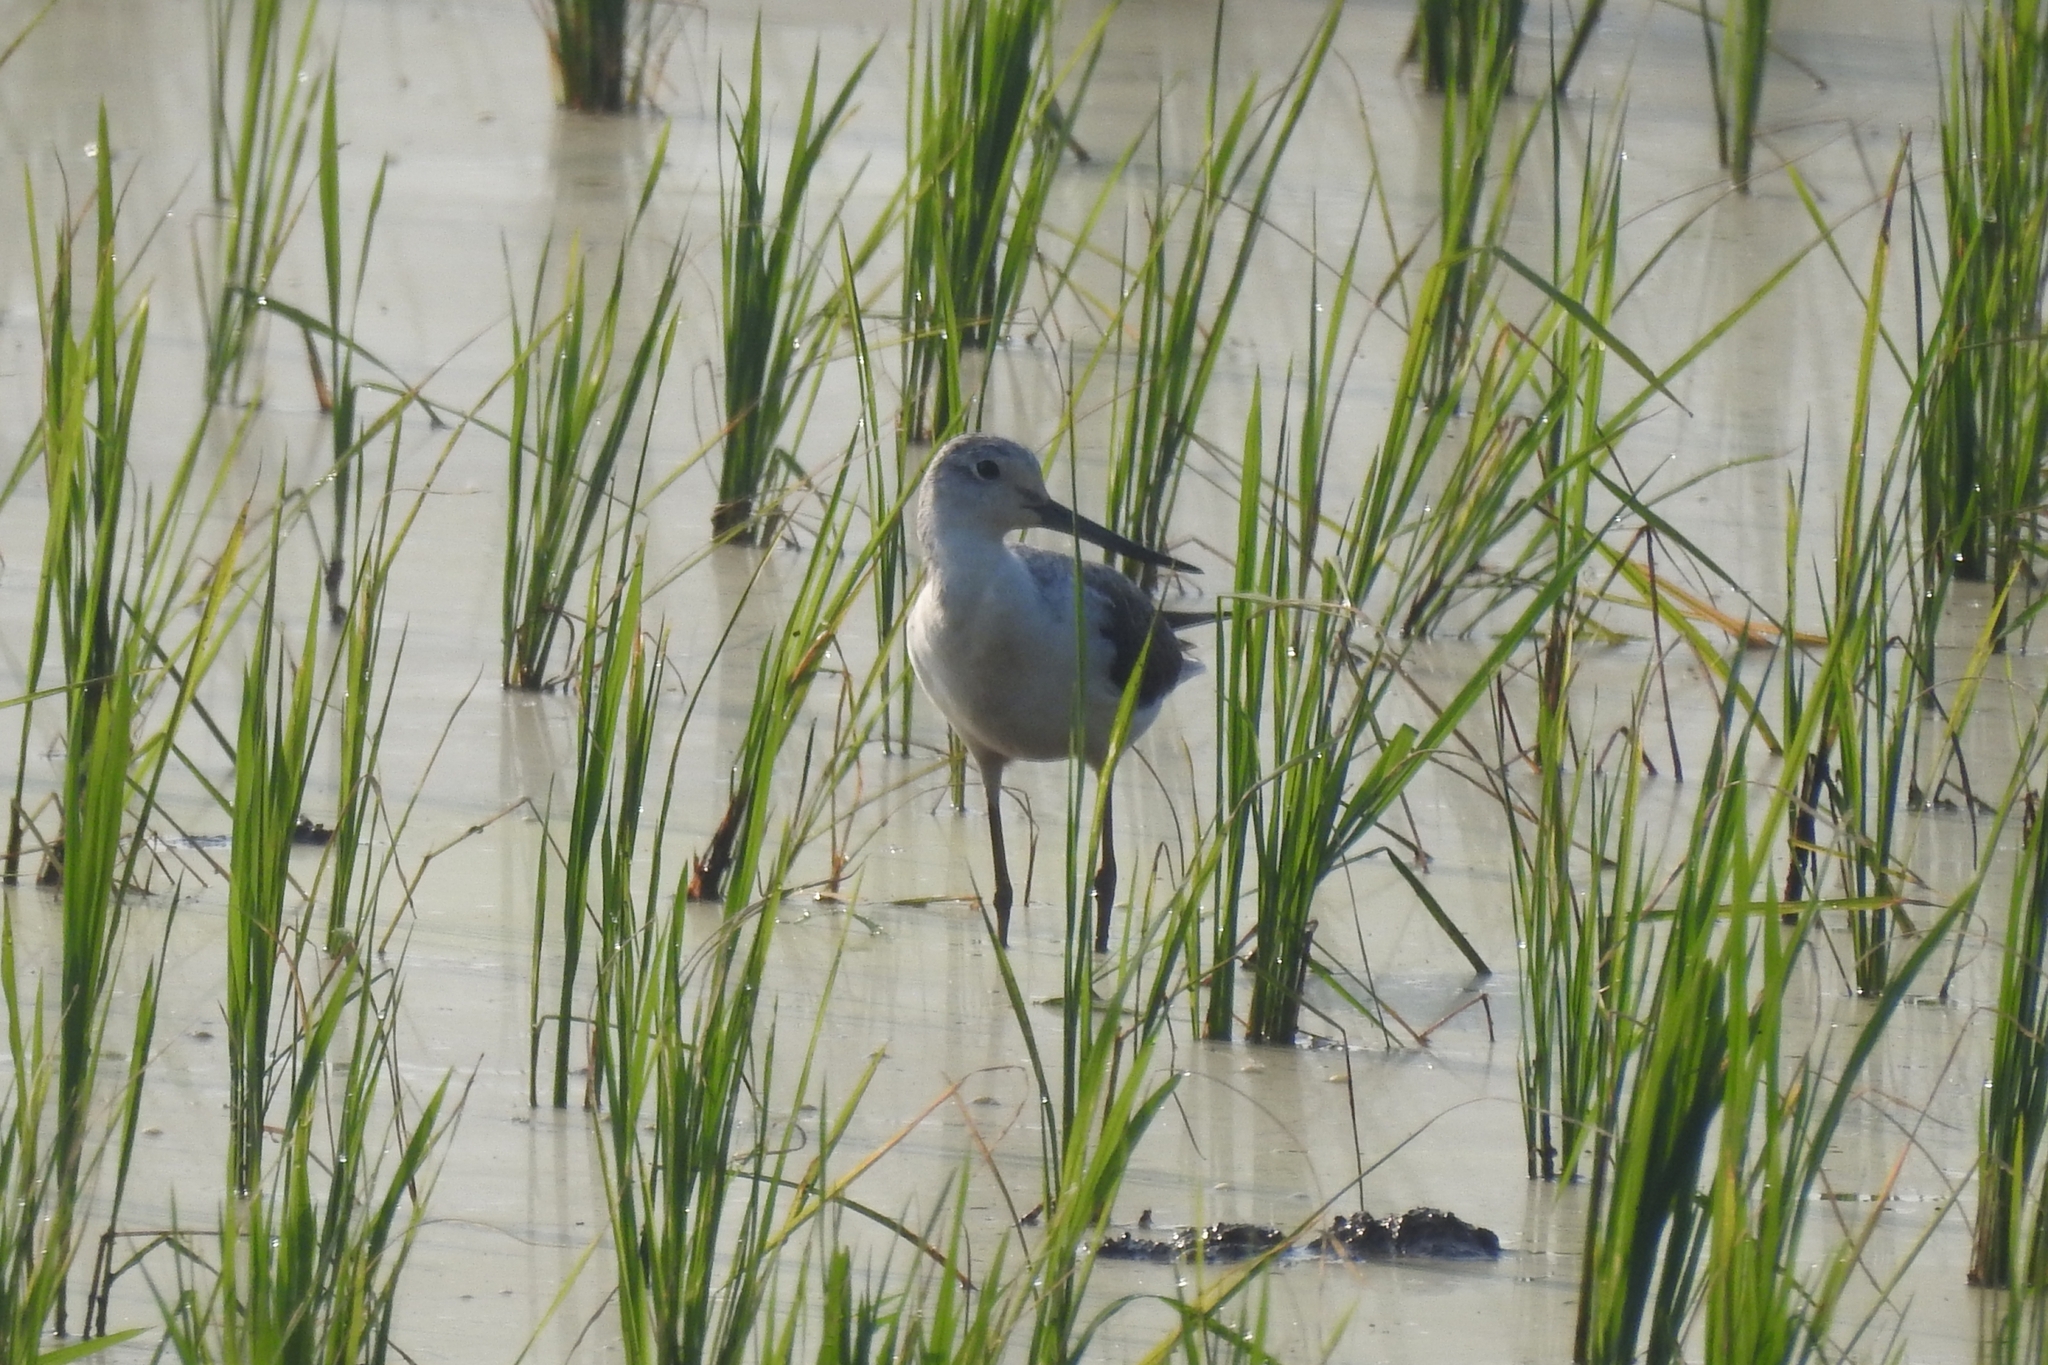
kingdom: Animalia
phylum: Chordata
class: Aves
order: Charadriiformes
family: Recurvirostridae
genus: Himantopus
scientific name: Himantopus himantopus
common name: Black-winged stilt
